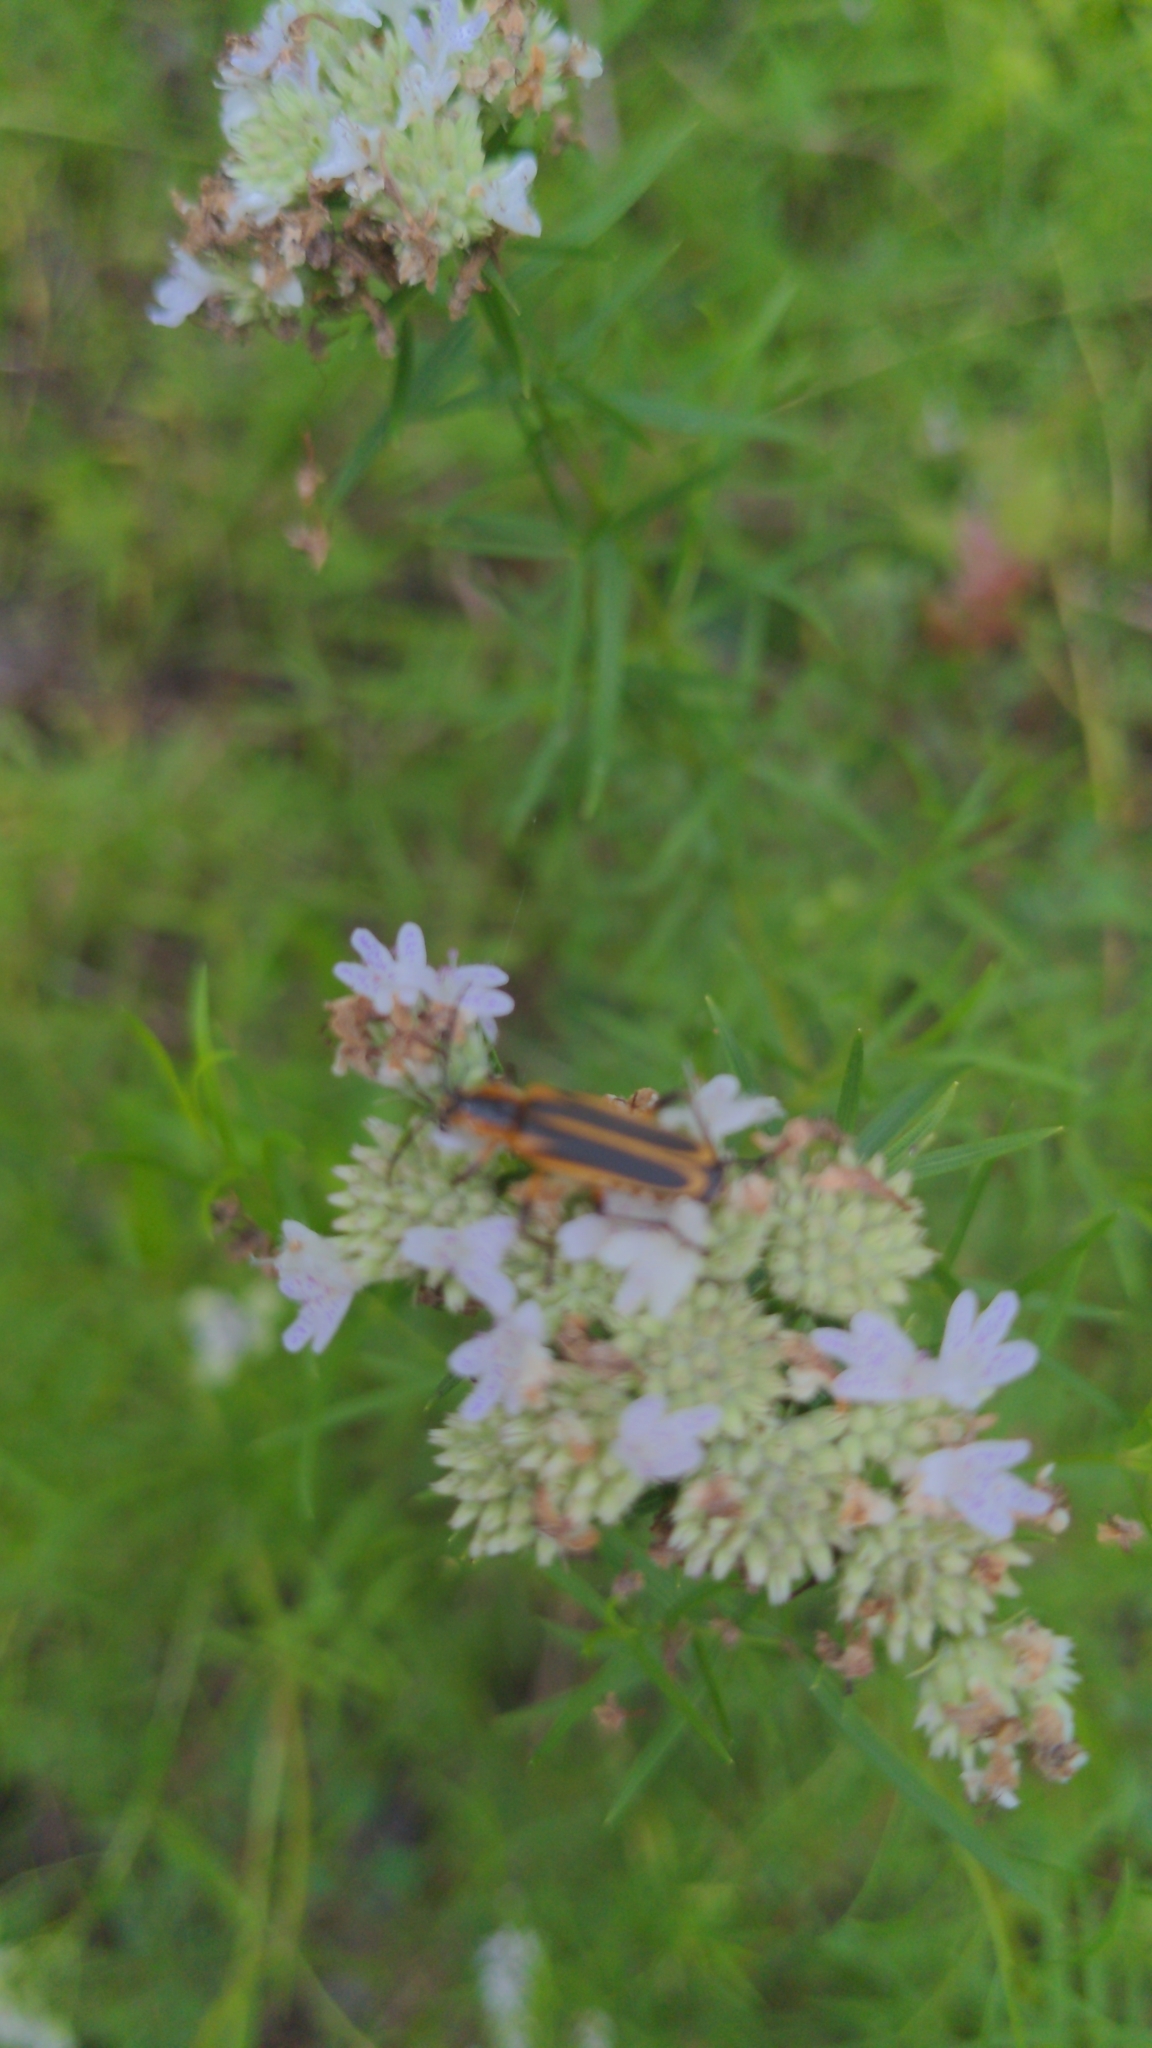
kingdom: Animalia
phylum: Arthropoda
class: Insecta
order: Coleoptera
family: Cantharidae
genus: Chauliognathus
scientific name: Chauliognathus marginatus
